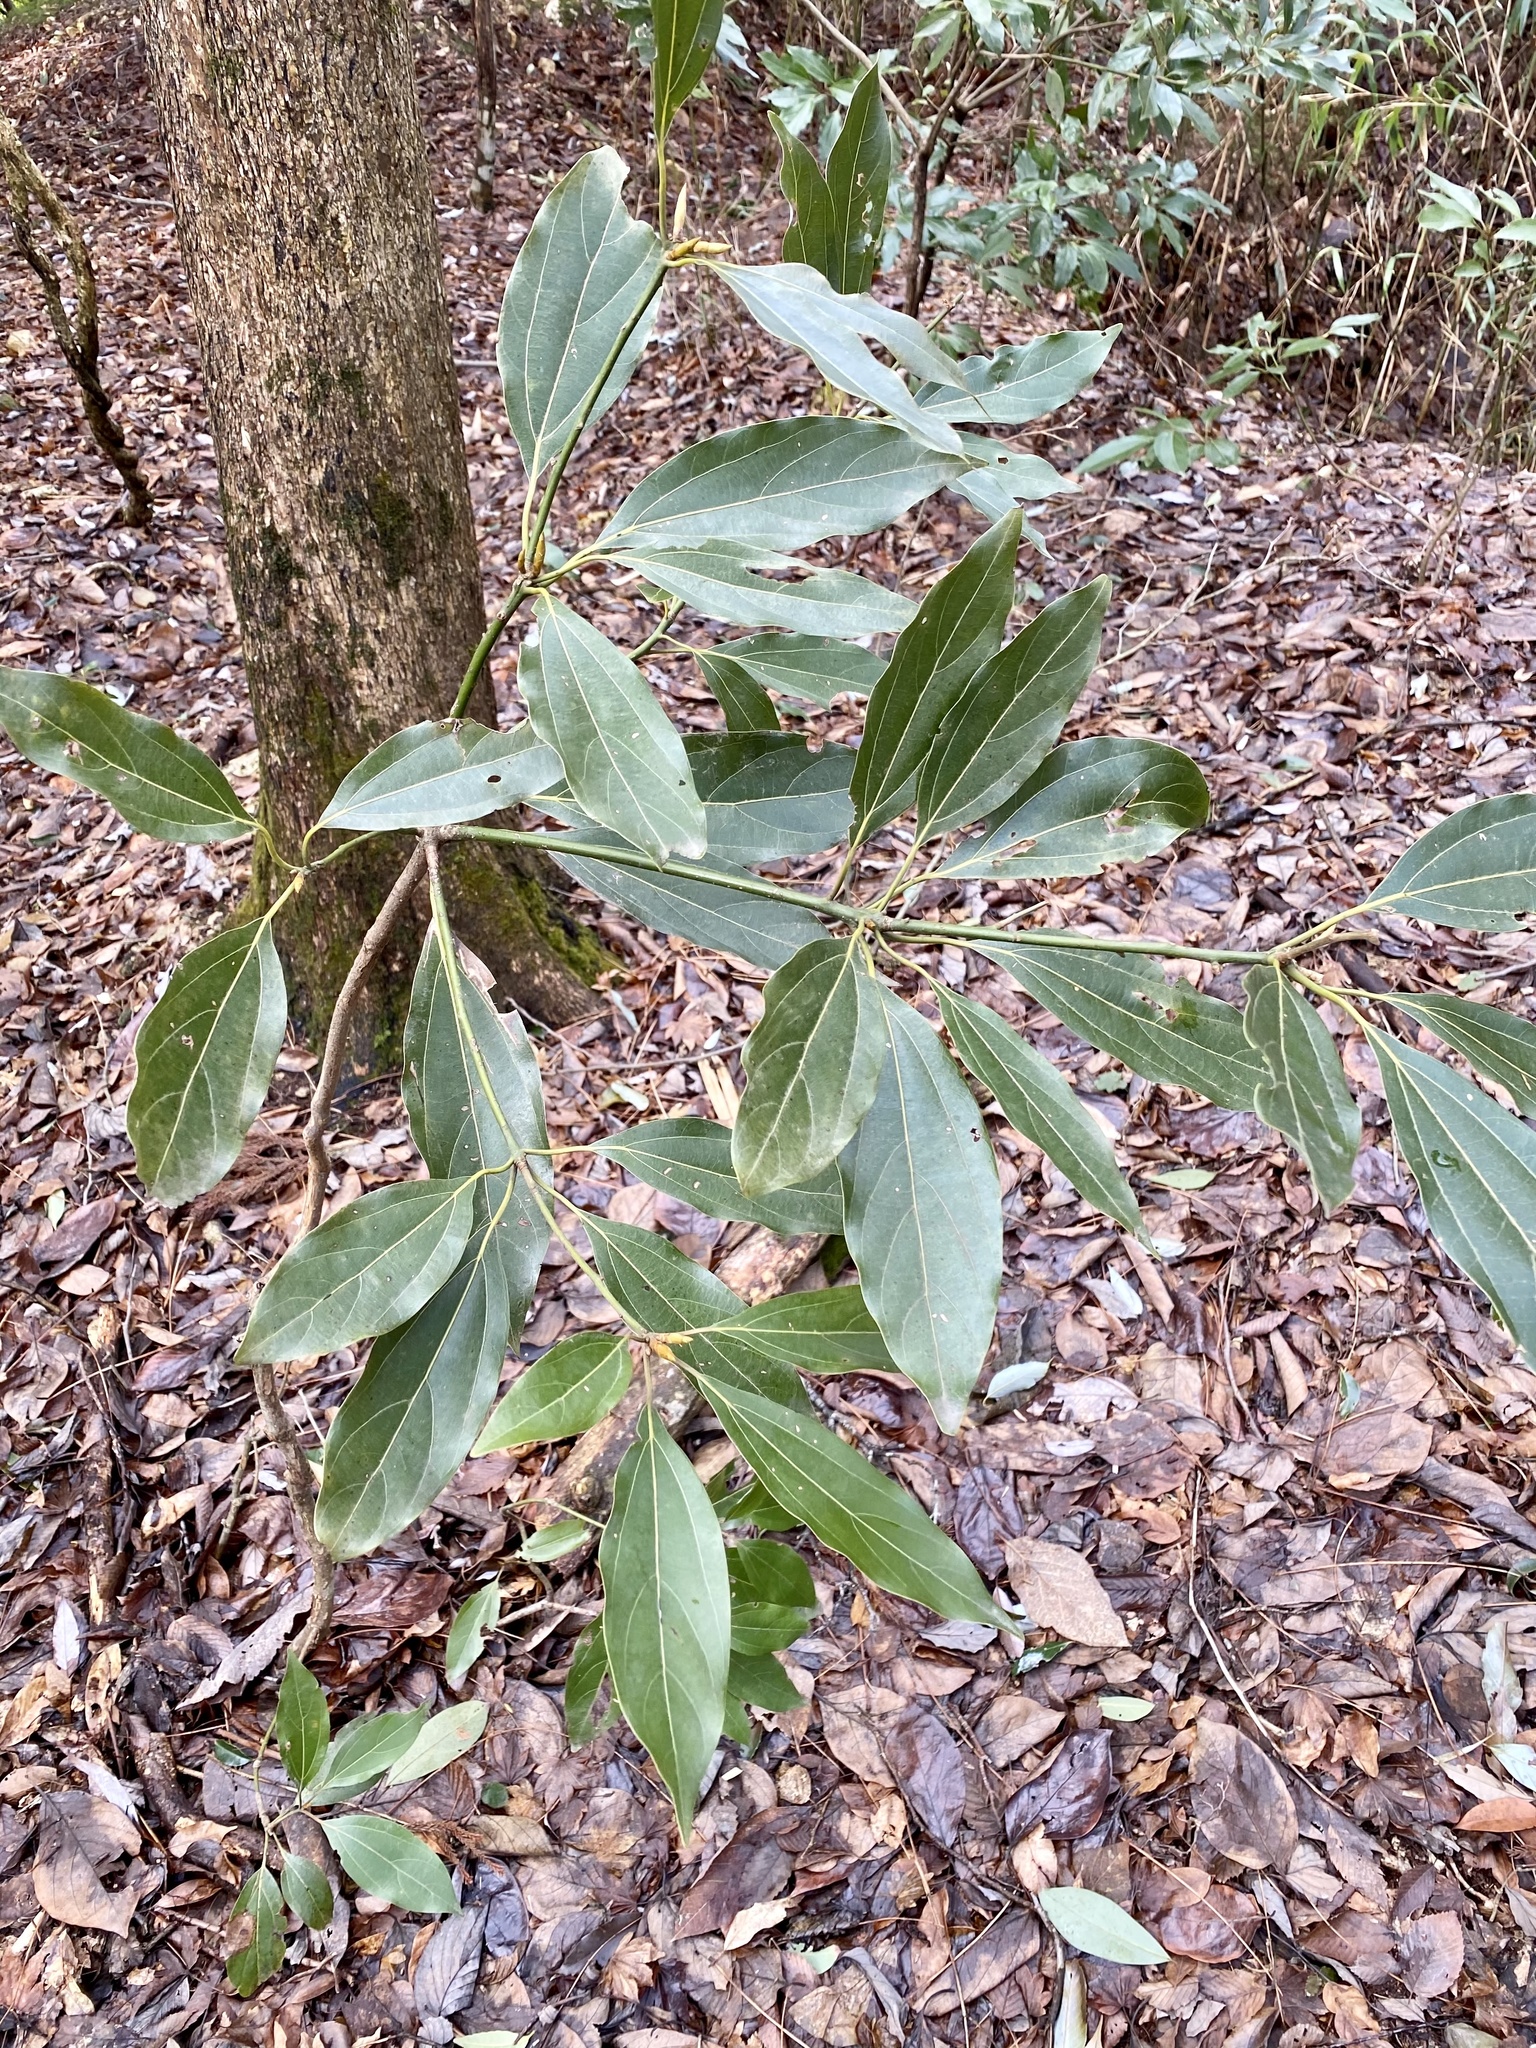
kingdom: Plantae
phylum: Tracheophyta
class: Magnoliopsida
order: Laurales
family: Lauraceae
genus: Neolitsea
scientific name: Neolitsea sericea
